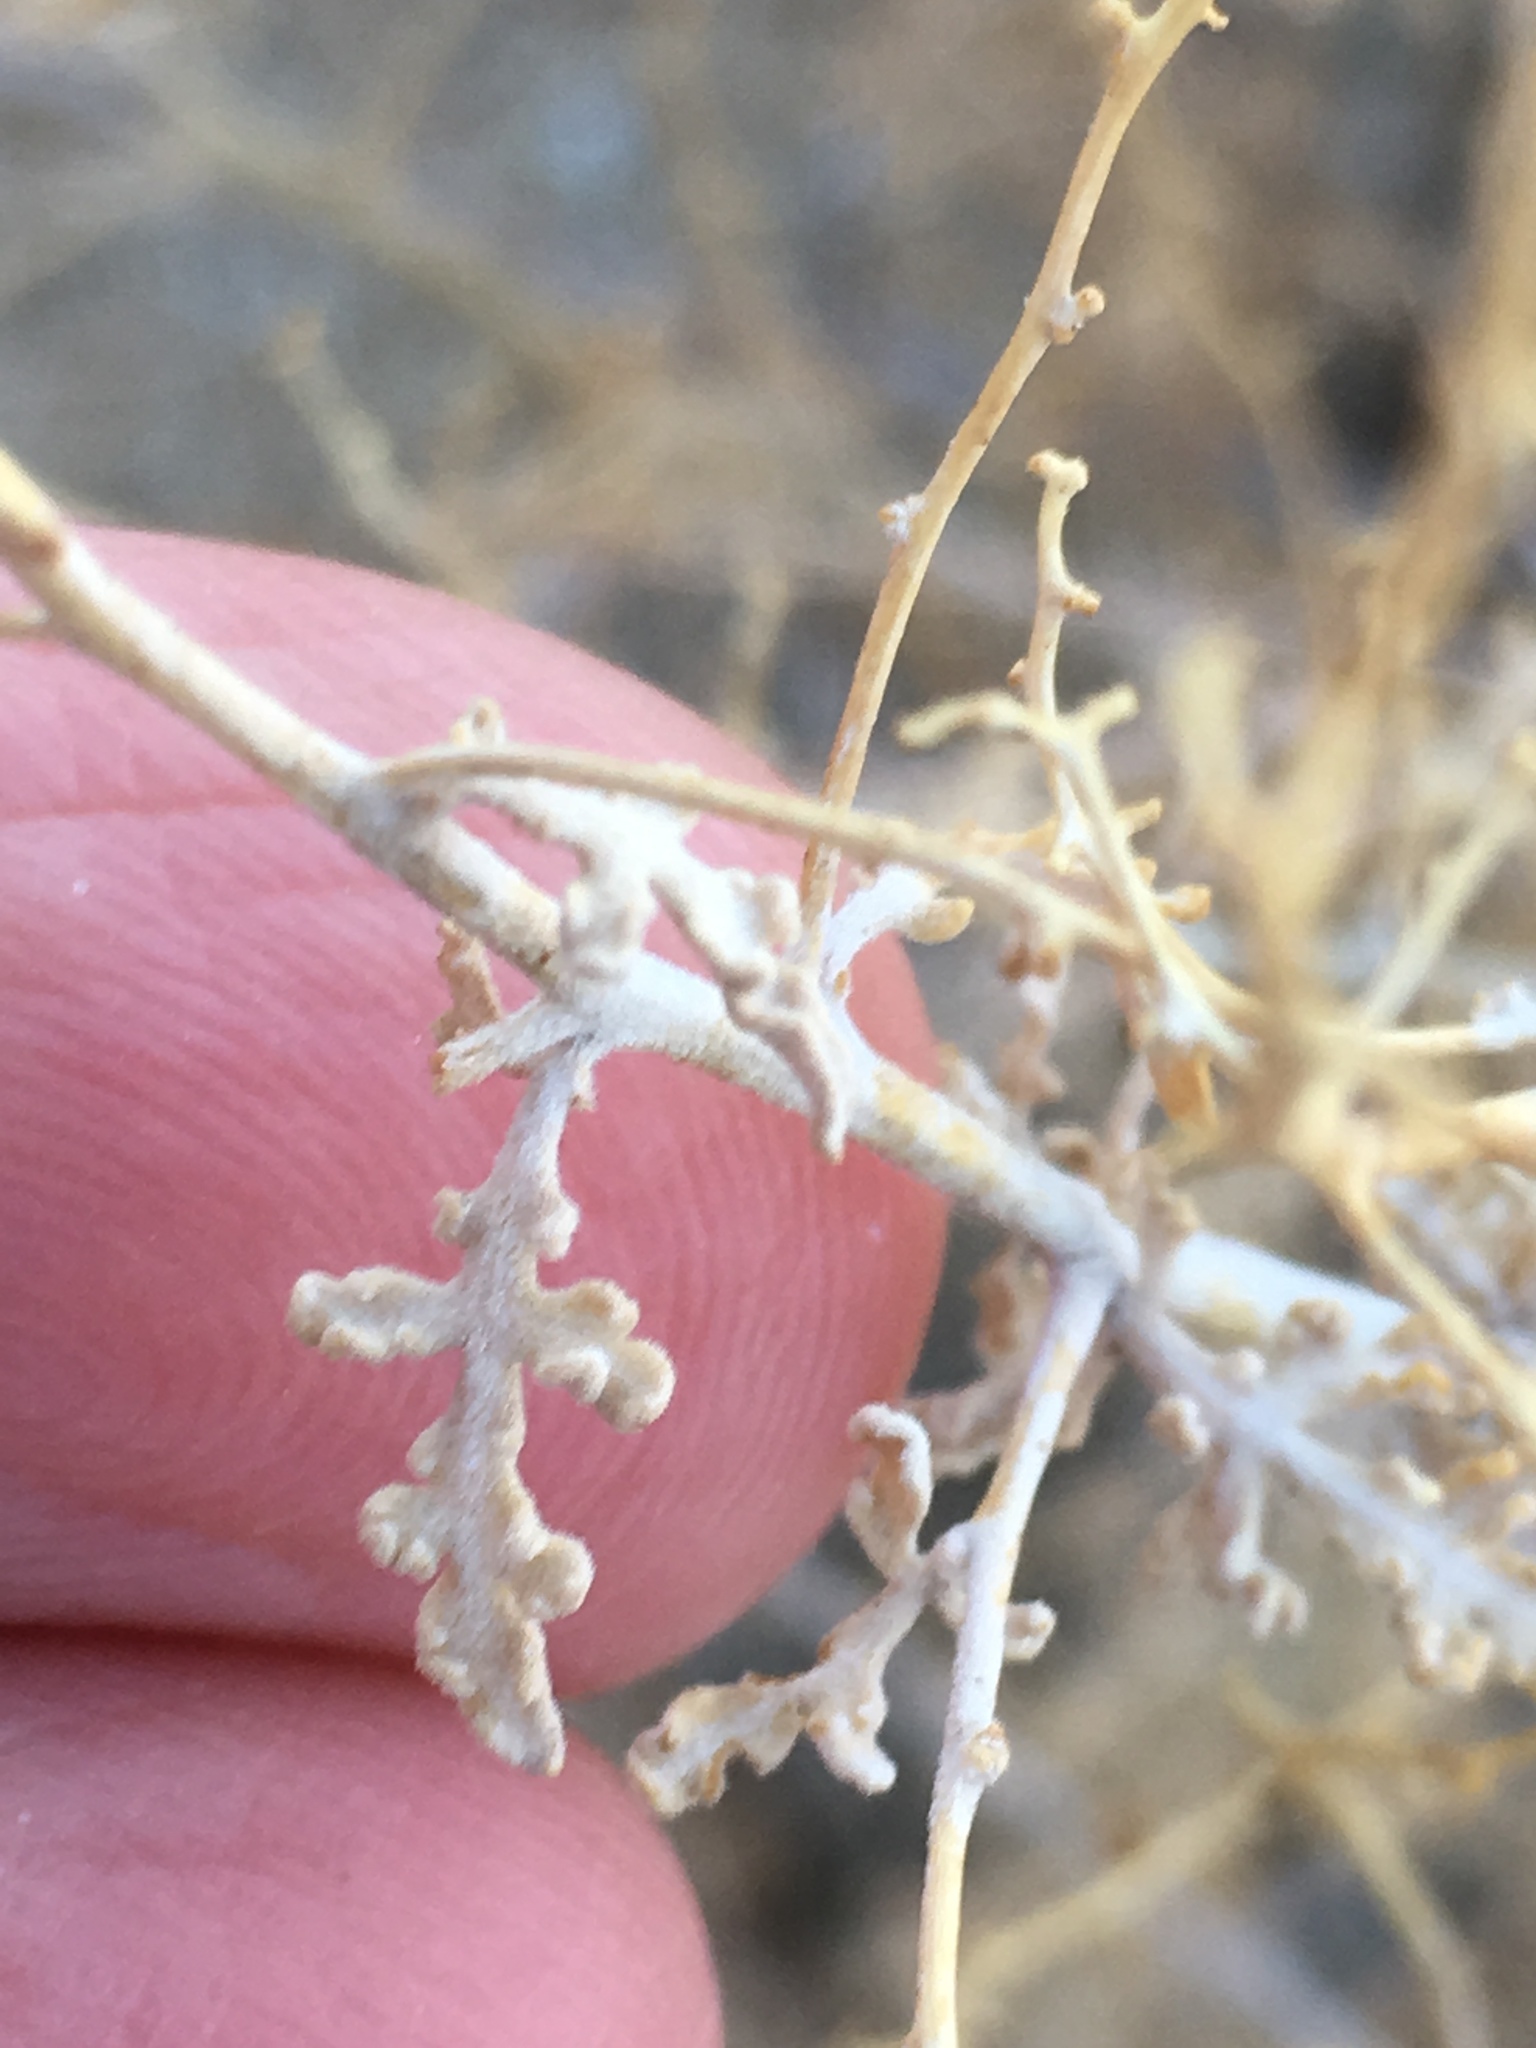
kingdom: Plantae
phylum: Tracheophyta
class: Magnoliopsida
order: Asterales
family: Asteraceae
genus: Ambrosia
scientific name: Ambrosia dumosa
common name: Bur-sage
